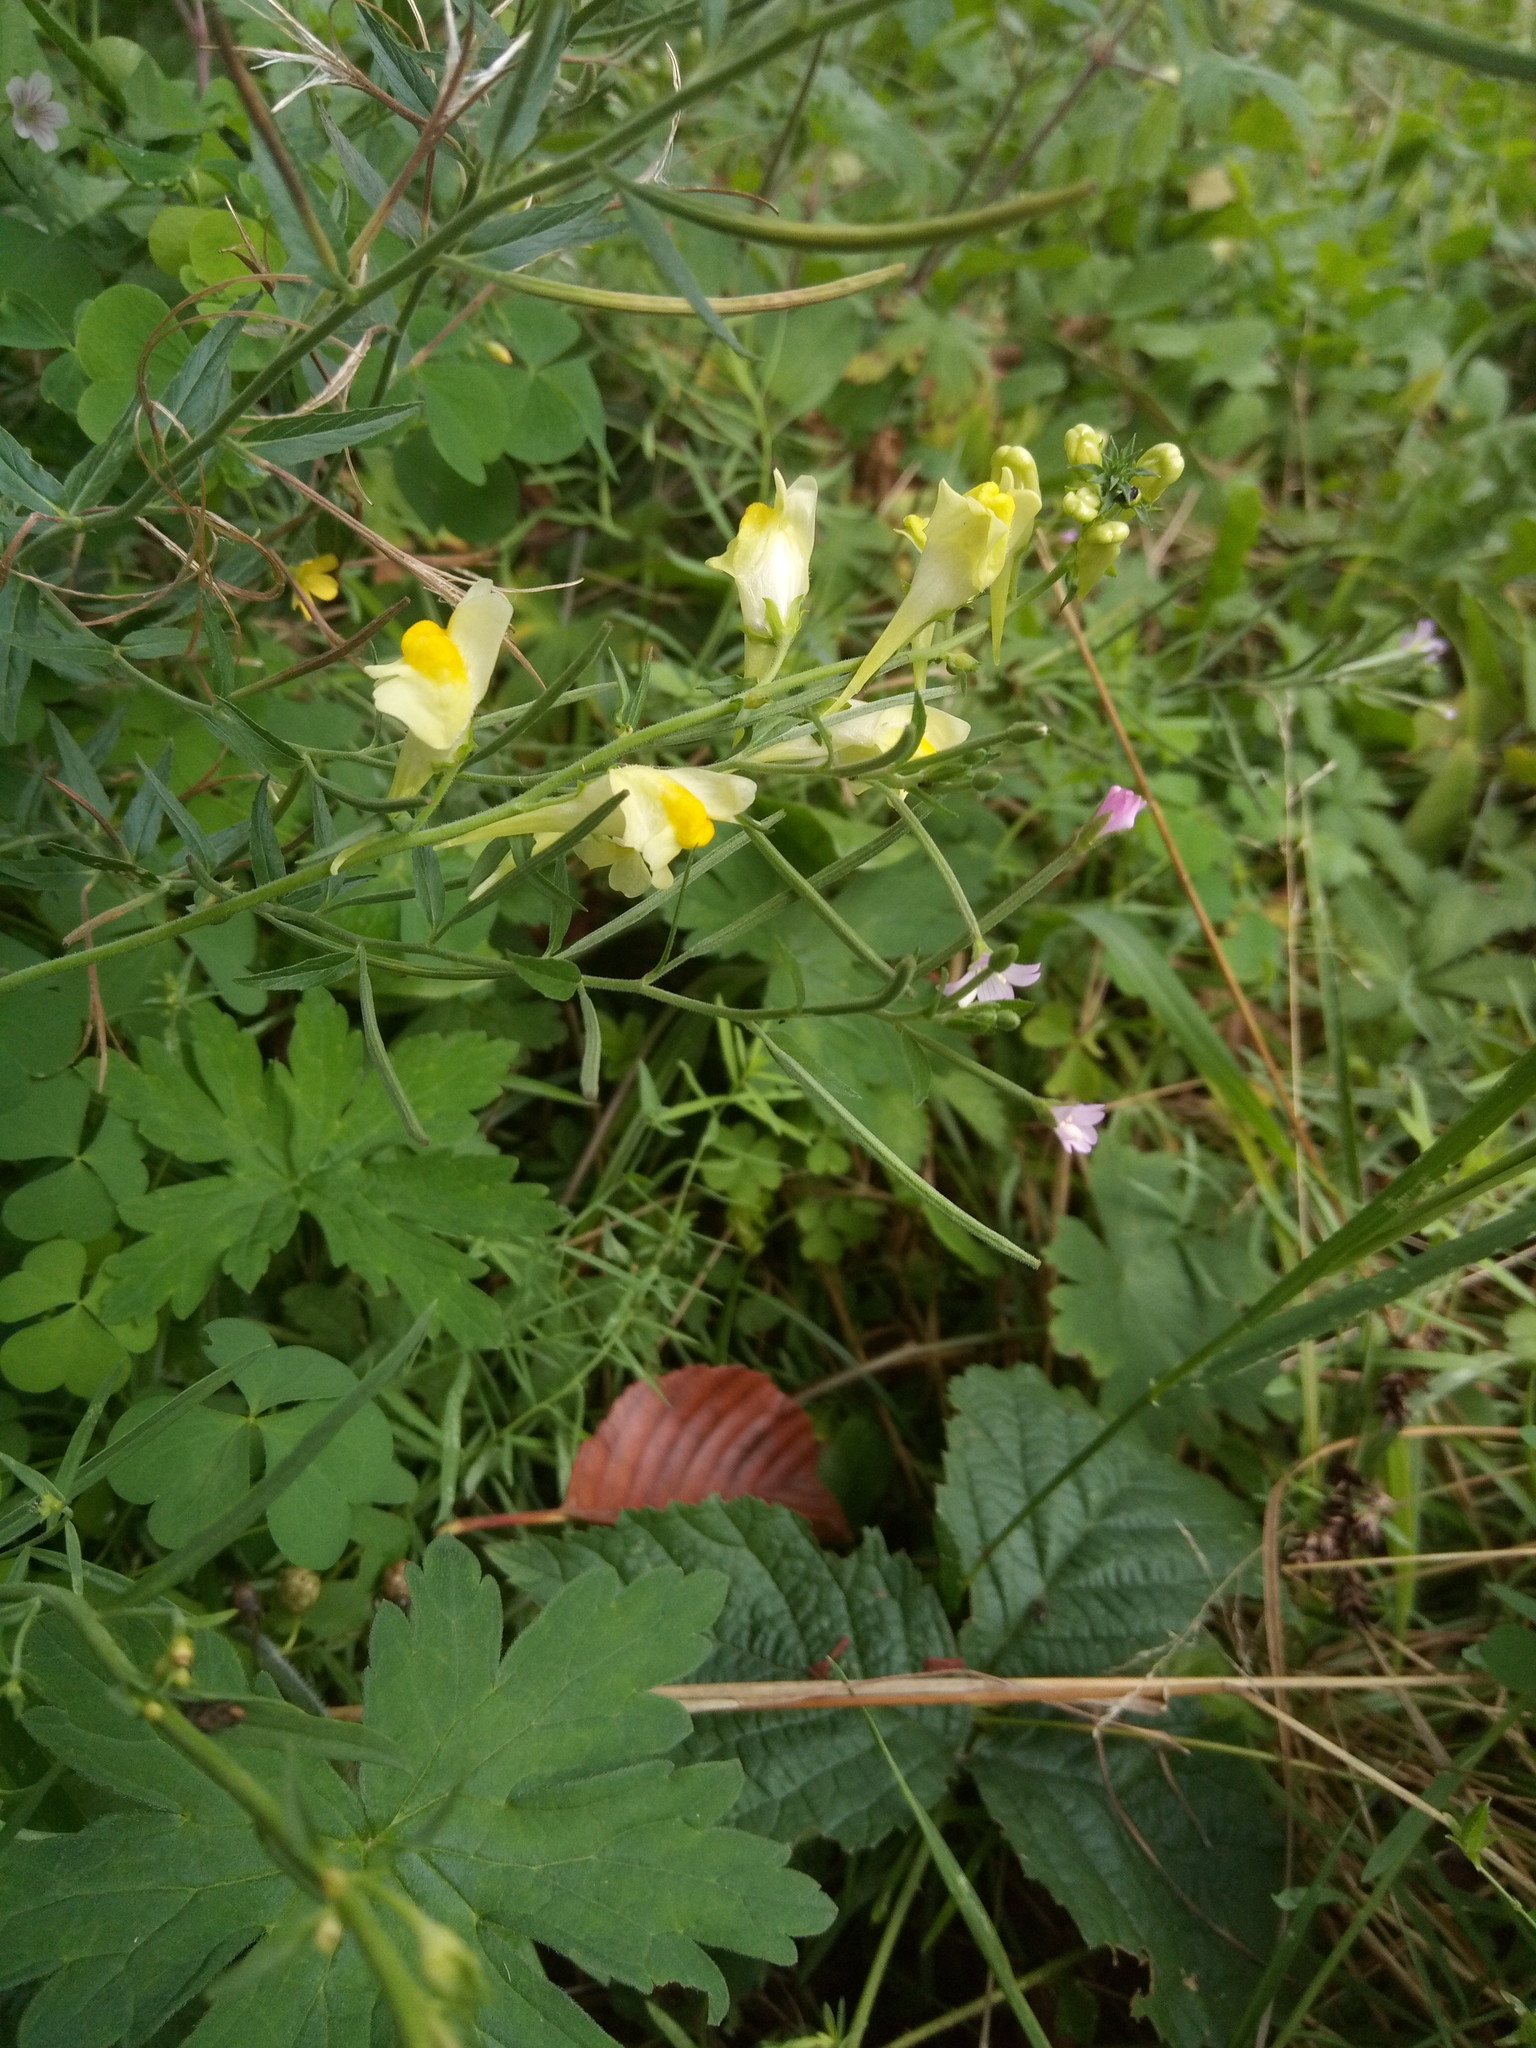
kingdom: Plantae
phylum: Tracheophyta
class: Magnoliopsida
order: Lamiales
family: Plantaginaceae
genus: Linaria
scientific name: Linaria vulgaris
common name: Butter and eggs
